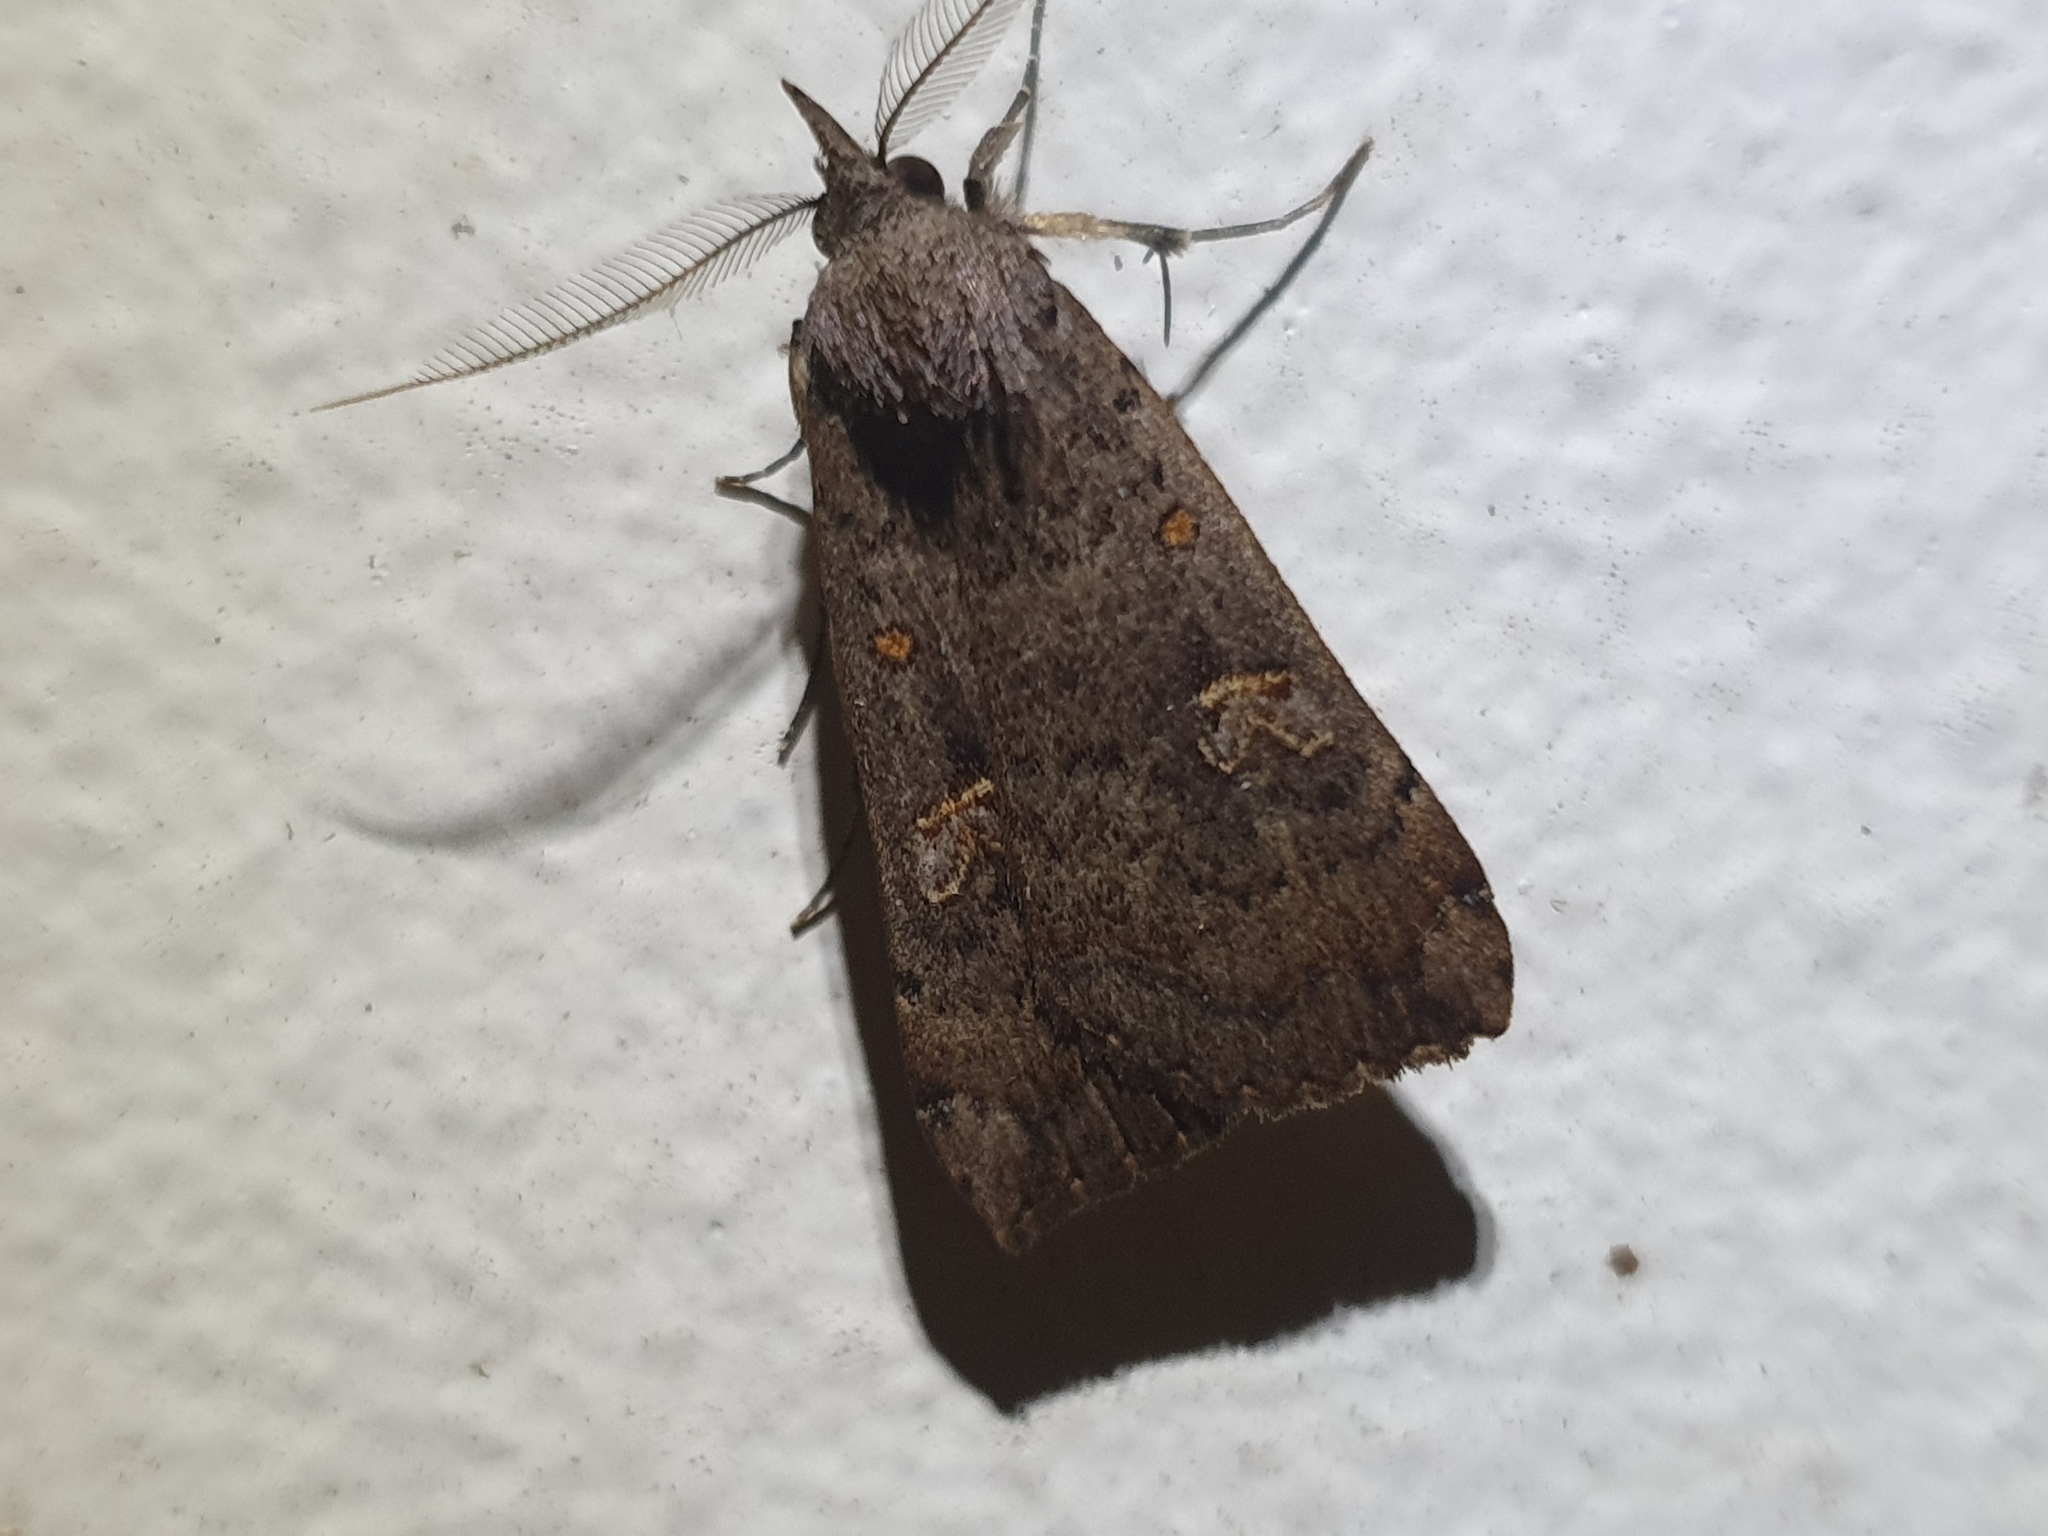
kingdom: Animalia
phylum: Arthropoda
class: Insecta
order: Lepidoptera
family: Erebidae
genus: Rhapsa
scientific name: Rhapsa scotosialis
